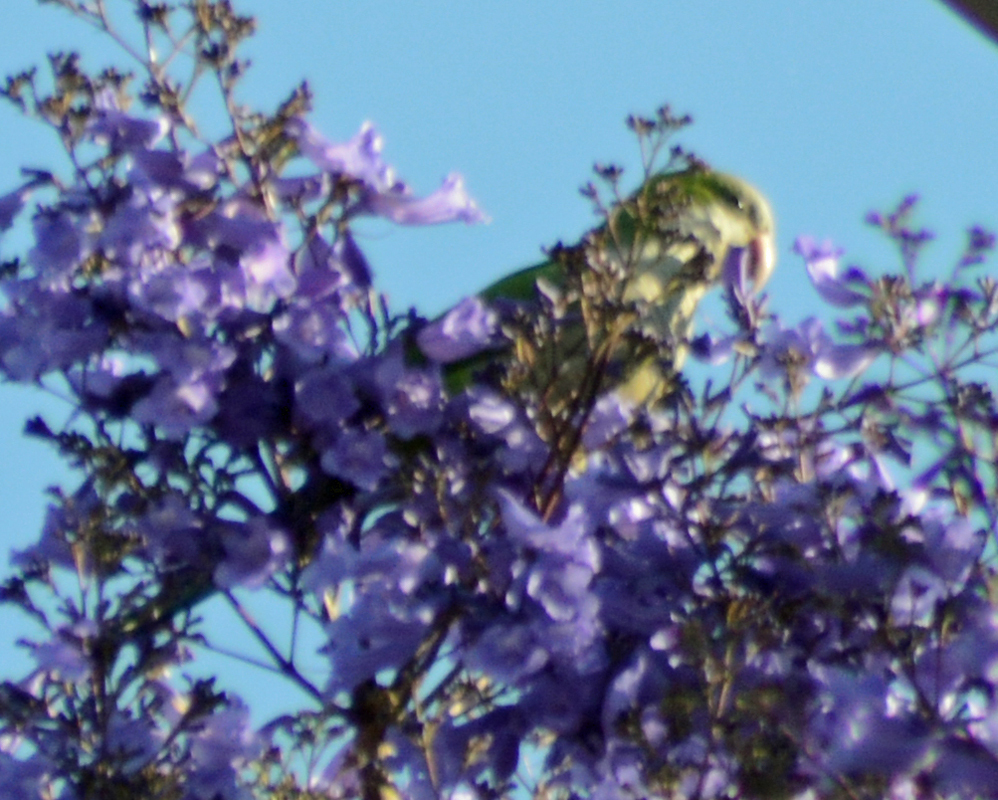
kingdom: Animalia
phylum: Chordata
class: Aves
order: Psittaciformes
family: Psittacidae
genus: Myiopsitta
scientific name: Myiopsitta monachus
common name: Monk parakeet
